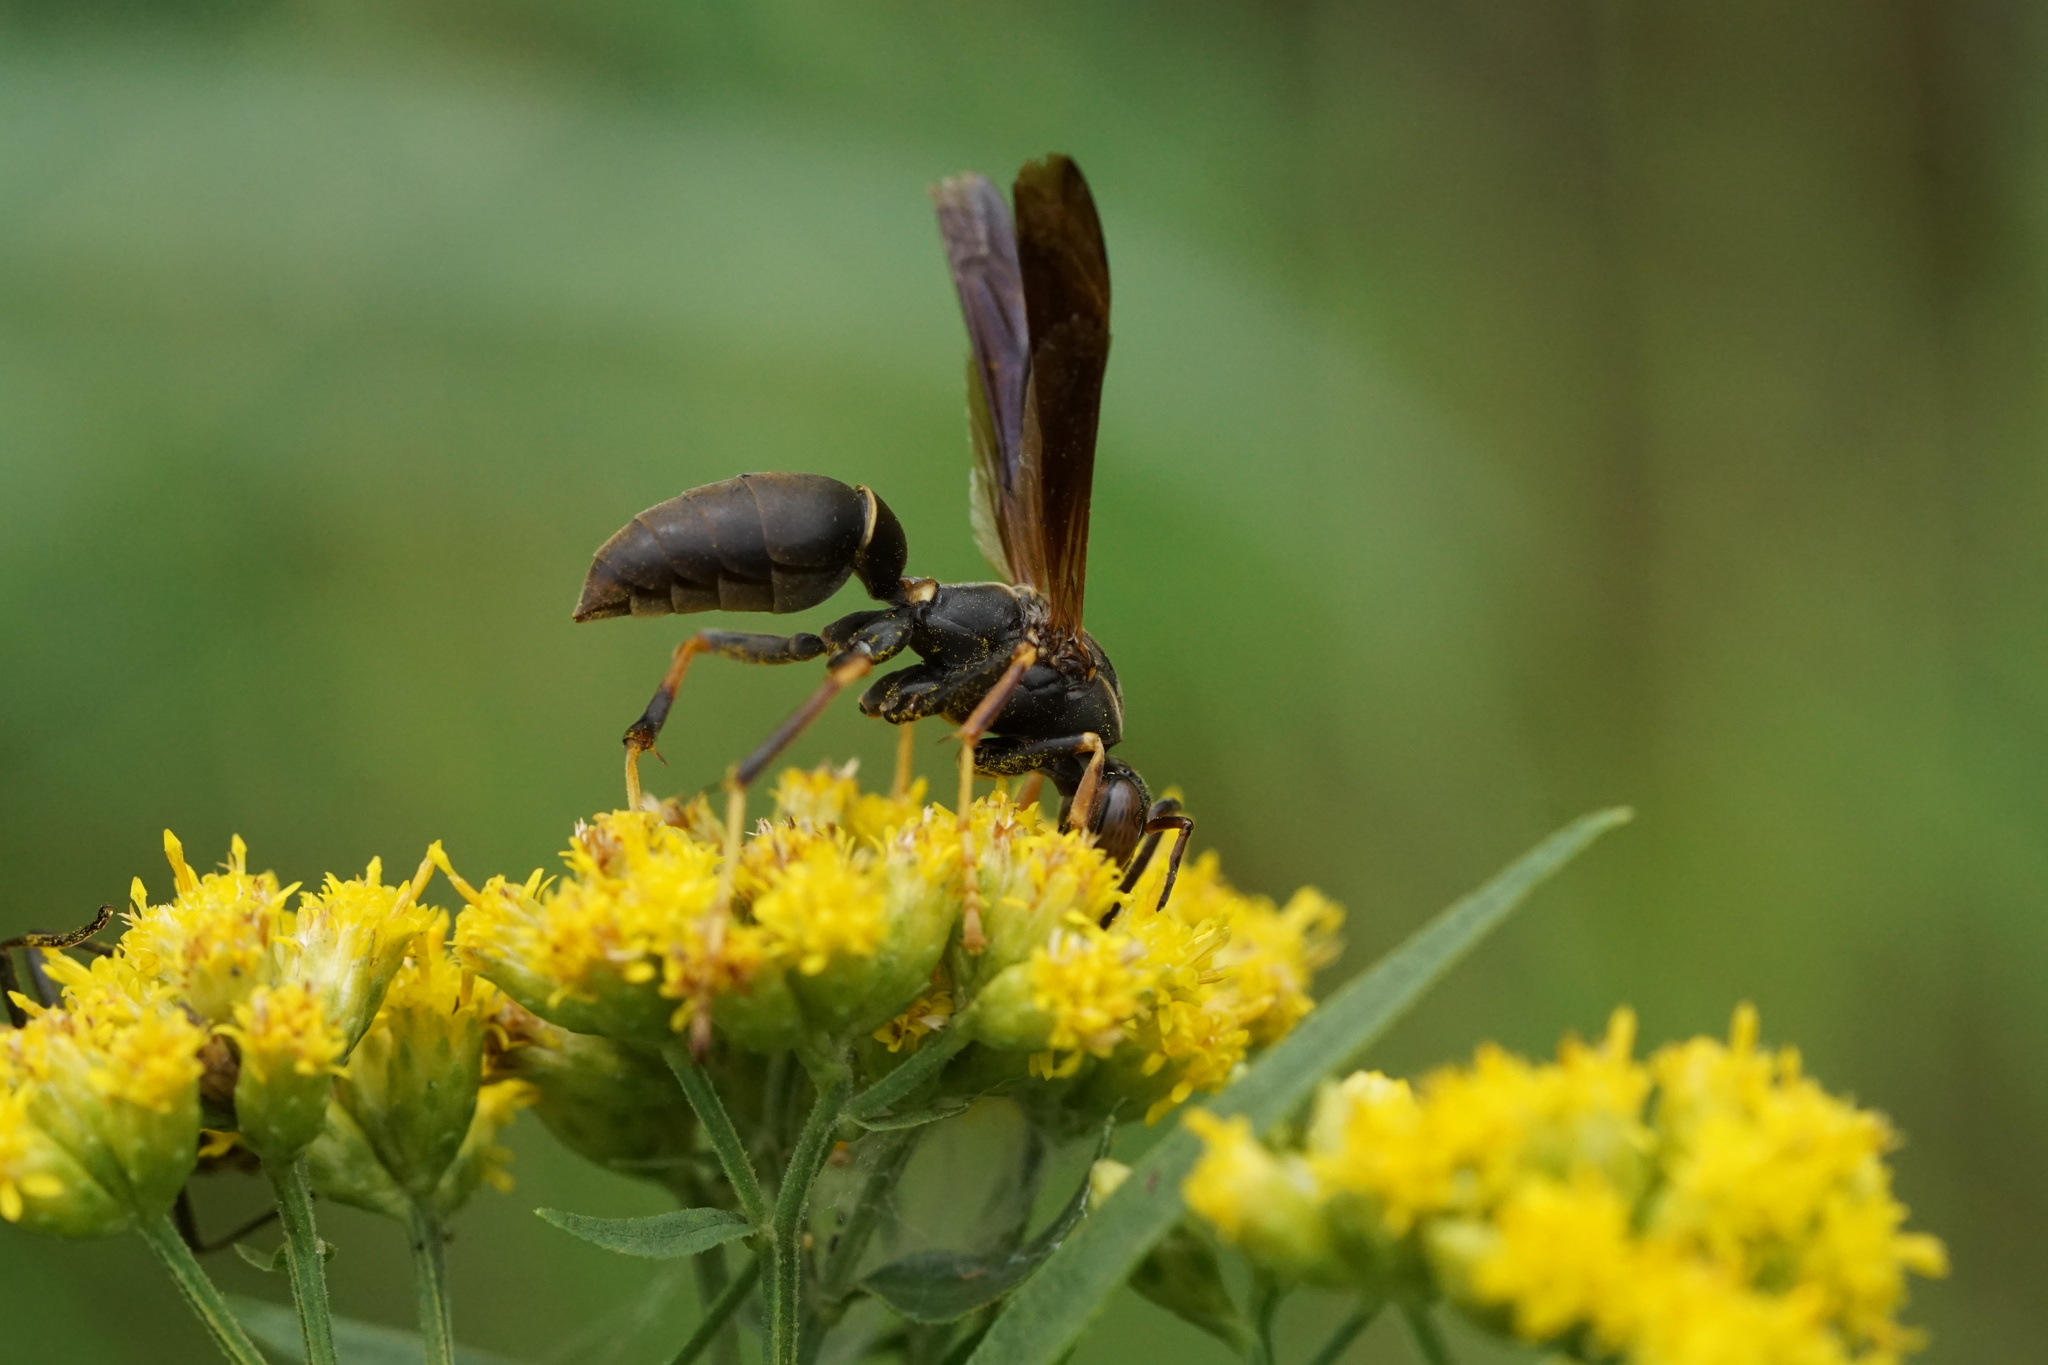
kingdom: Animalia
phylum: Arthropoda
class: Insecta
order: Hymenoptera
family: Eumenidae
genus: Polistes
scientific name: Polistes fuscatus
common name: Dark paper wasp
